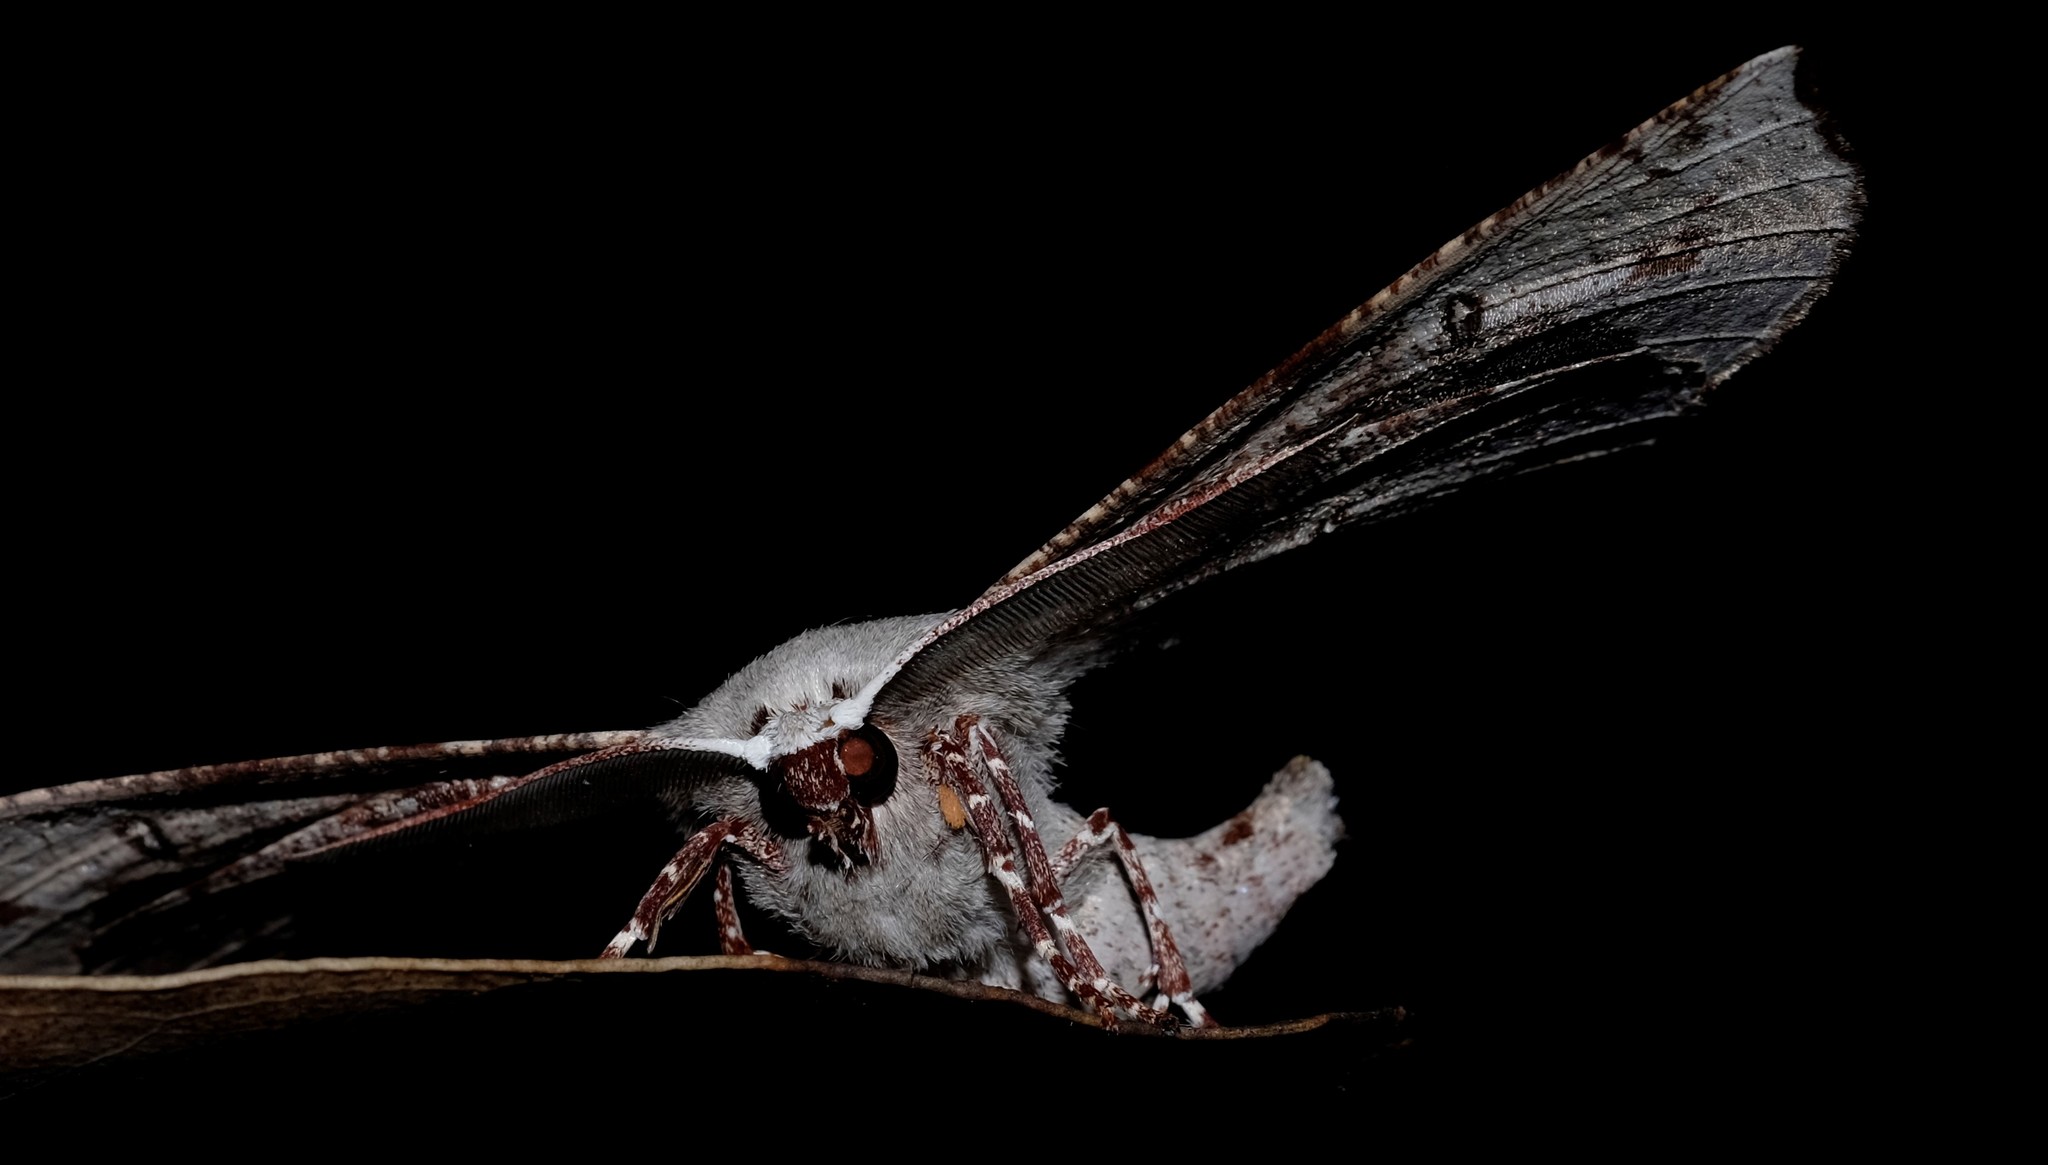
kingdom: Animalia
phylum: Arthropoda
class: Insecta
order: Lepidoptera
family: Geometridae
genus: Circopetes
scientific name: Circopetes obtusata
